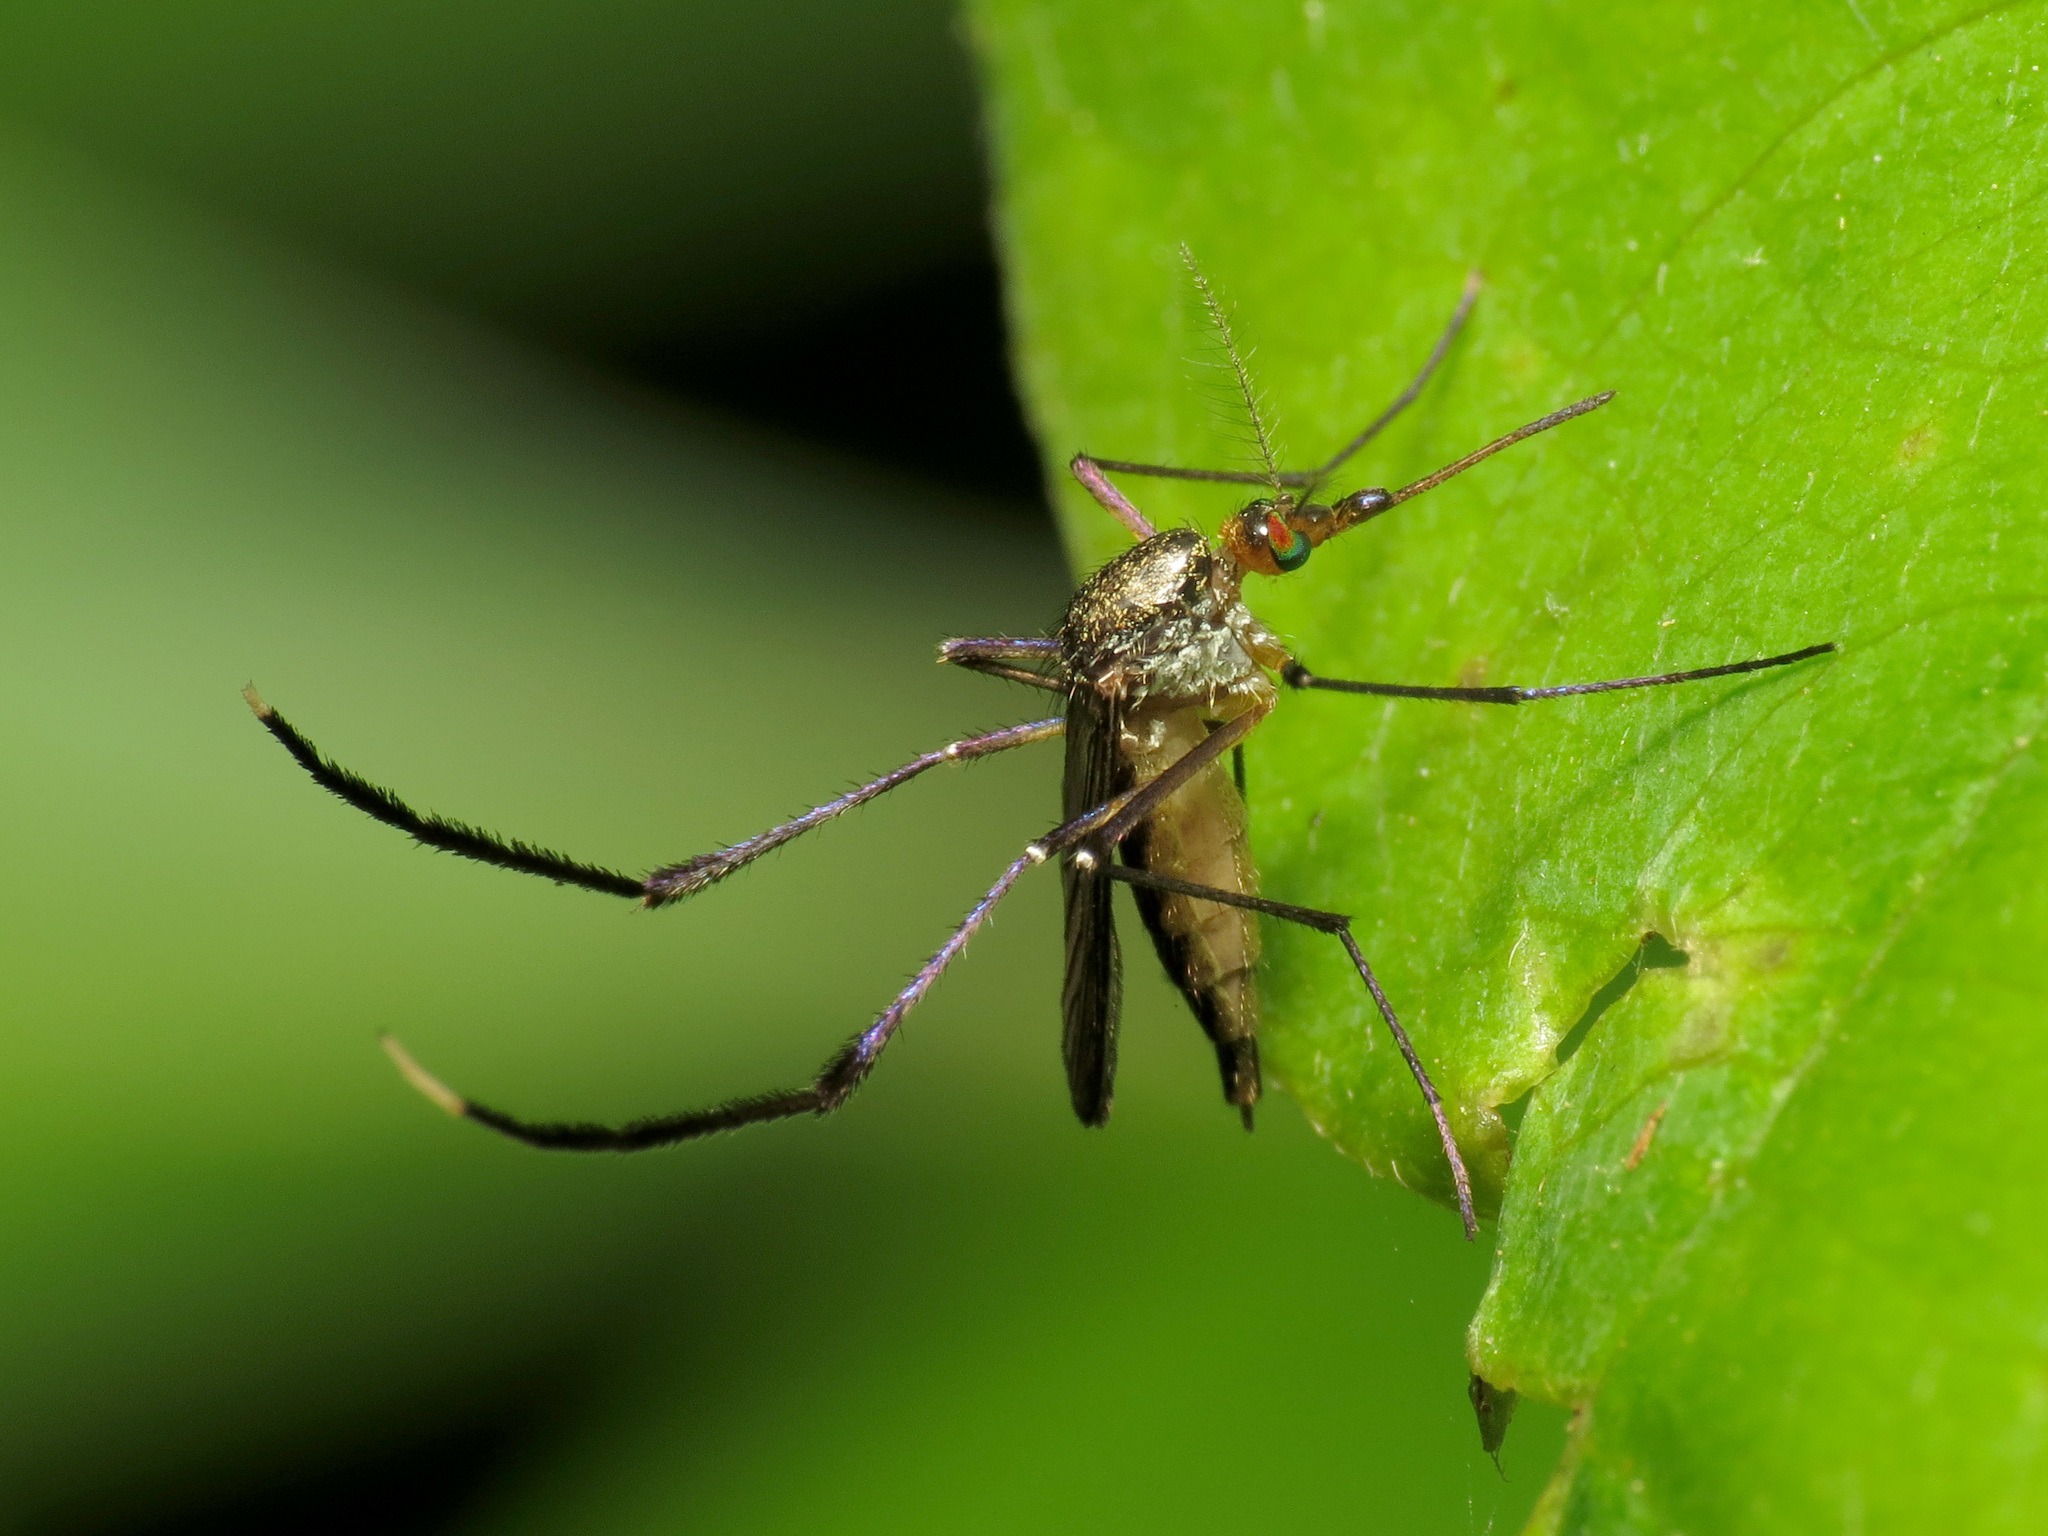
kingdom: Animalia
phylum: Arthropoda
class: Insecta
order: Diptera
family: Culicidae
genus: Psorophora
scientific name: Psorophora ferox
